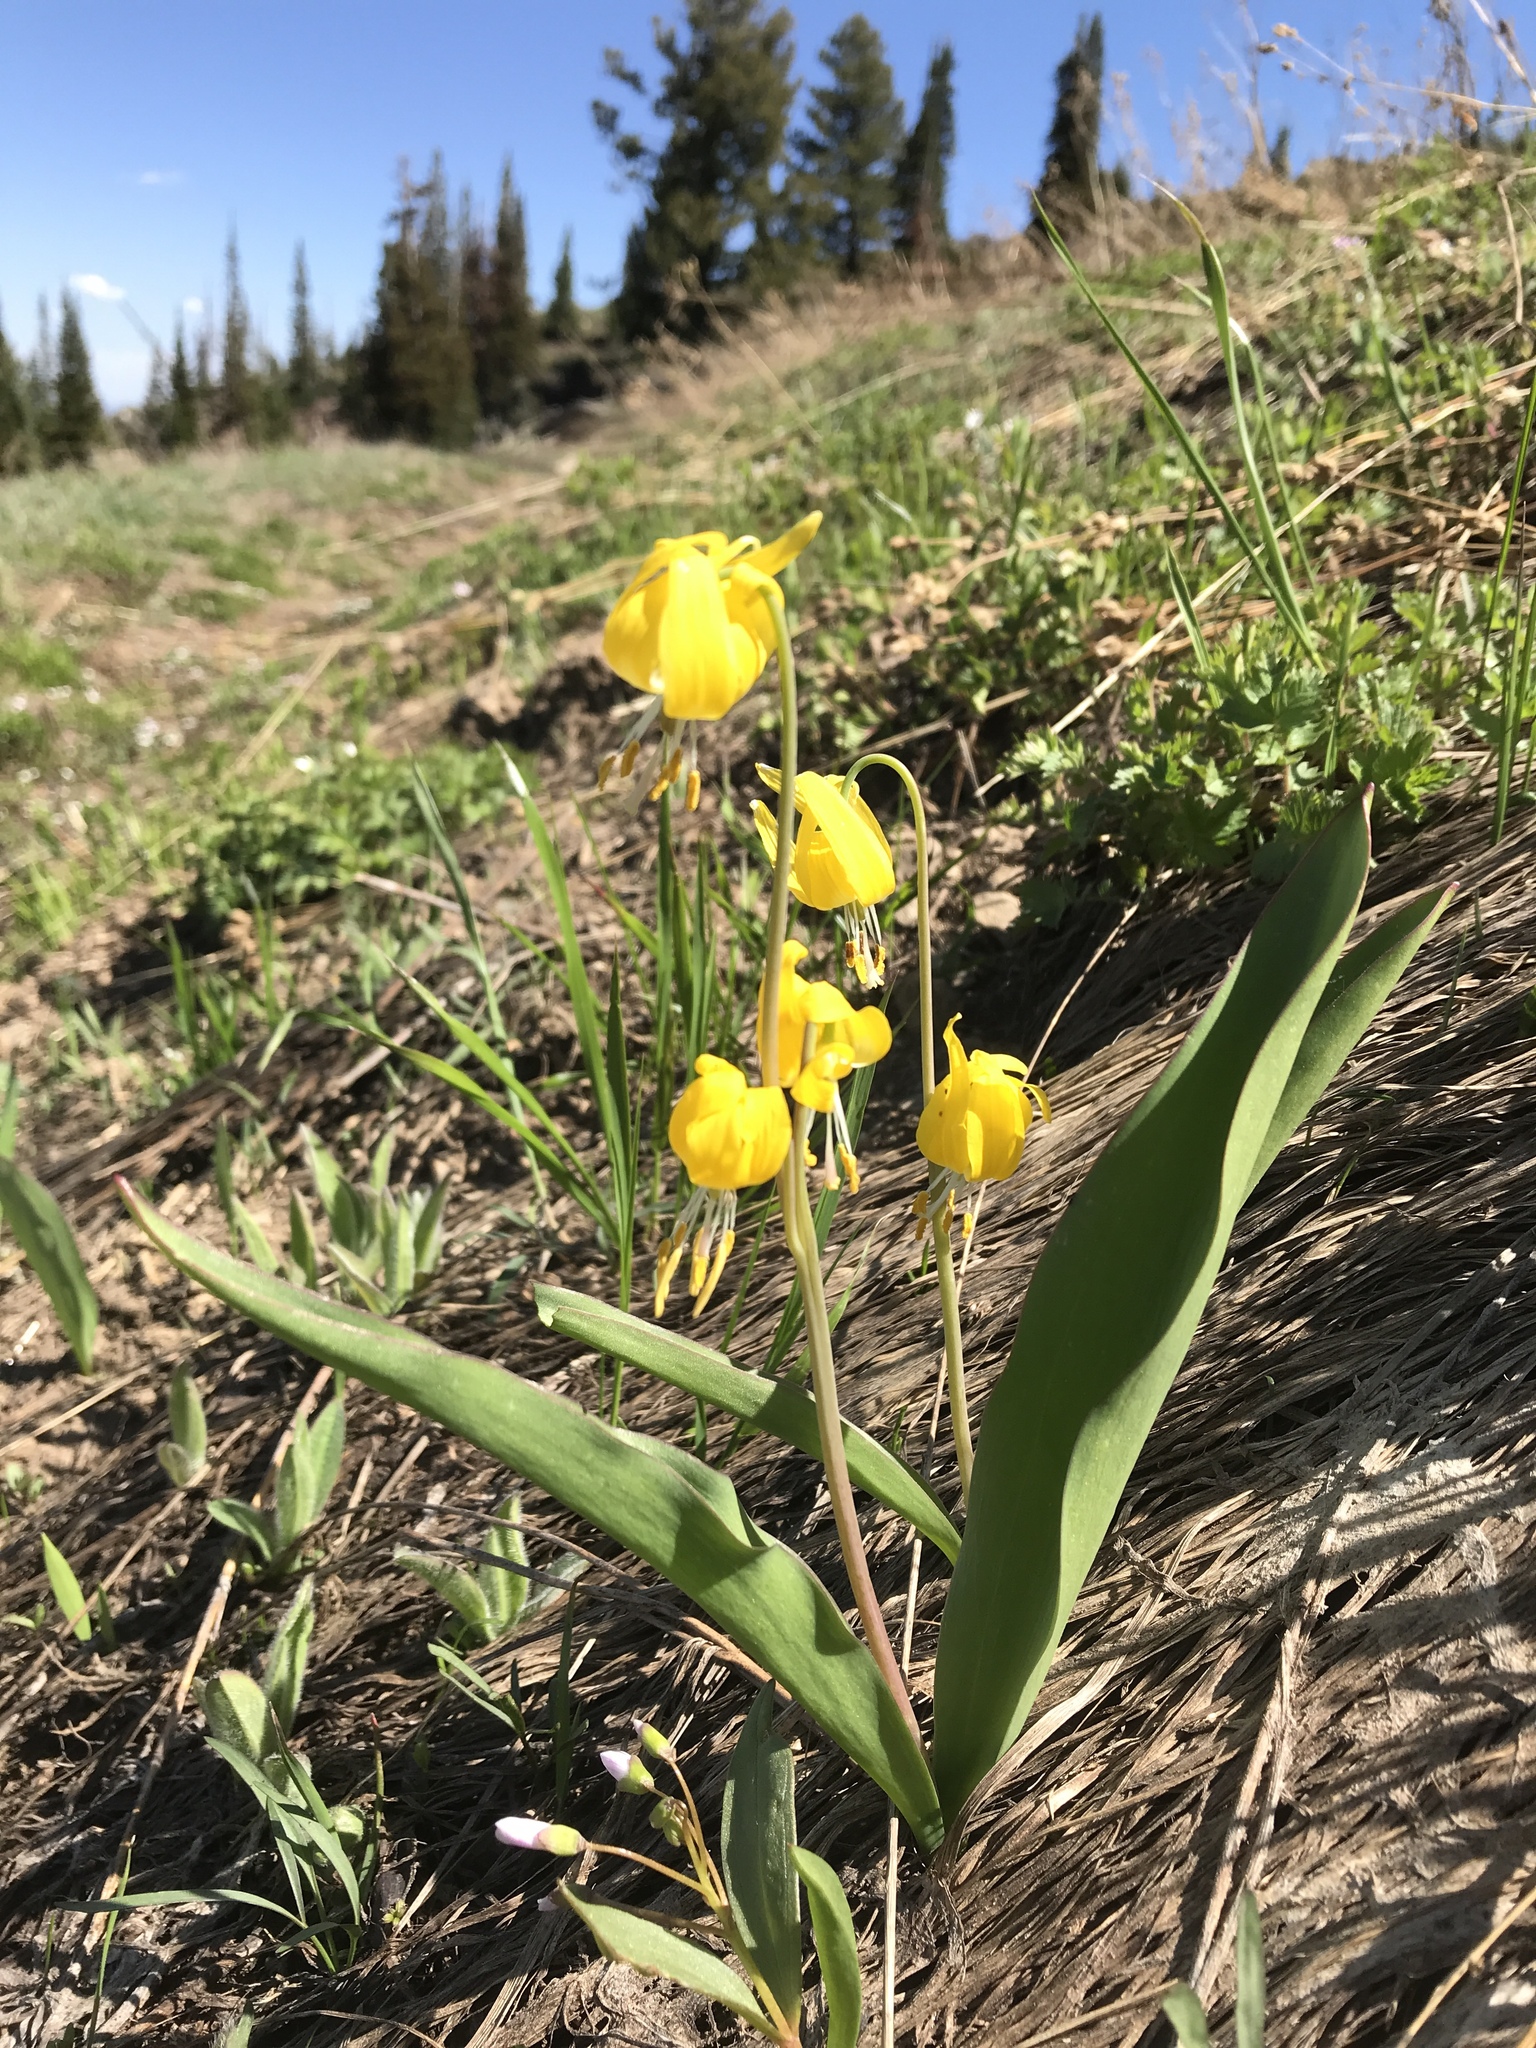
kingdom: Plantae
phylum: Tracheophyta
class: Liliopsida
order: Liliales
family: Liliaceae
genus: Erythronium
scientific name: Erythronium grandiflorum
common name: Avalanche-lily
